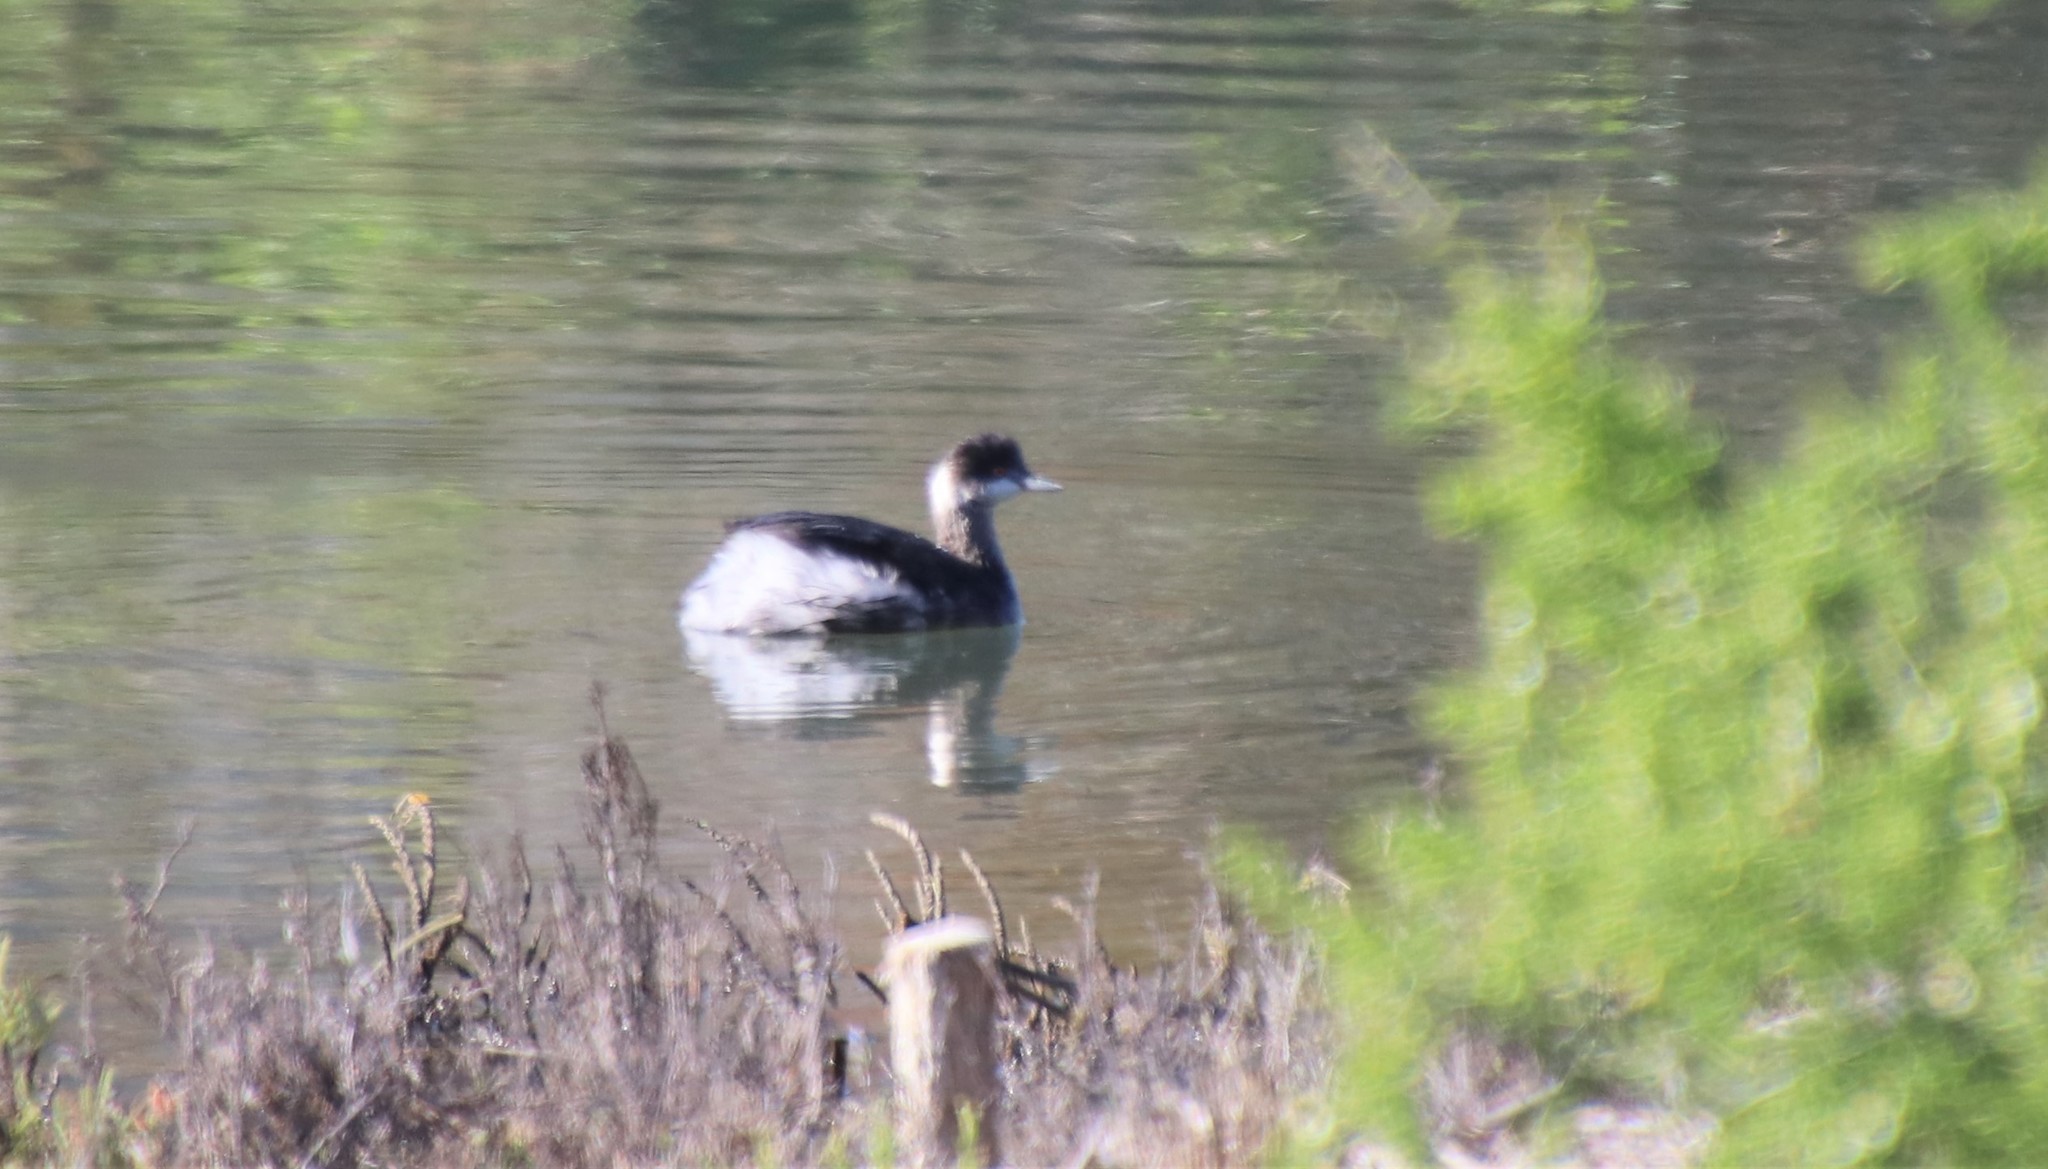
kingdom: Animalia
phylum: Chordata
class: Aves
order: Podicipediformes
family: Podicipedidae
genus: Podiceps
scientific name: Podiceps nigricollis
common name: Black-necked grebe
